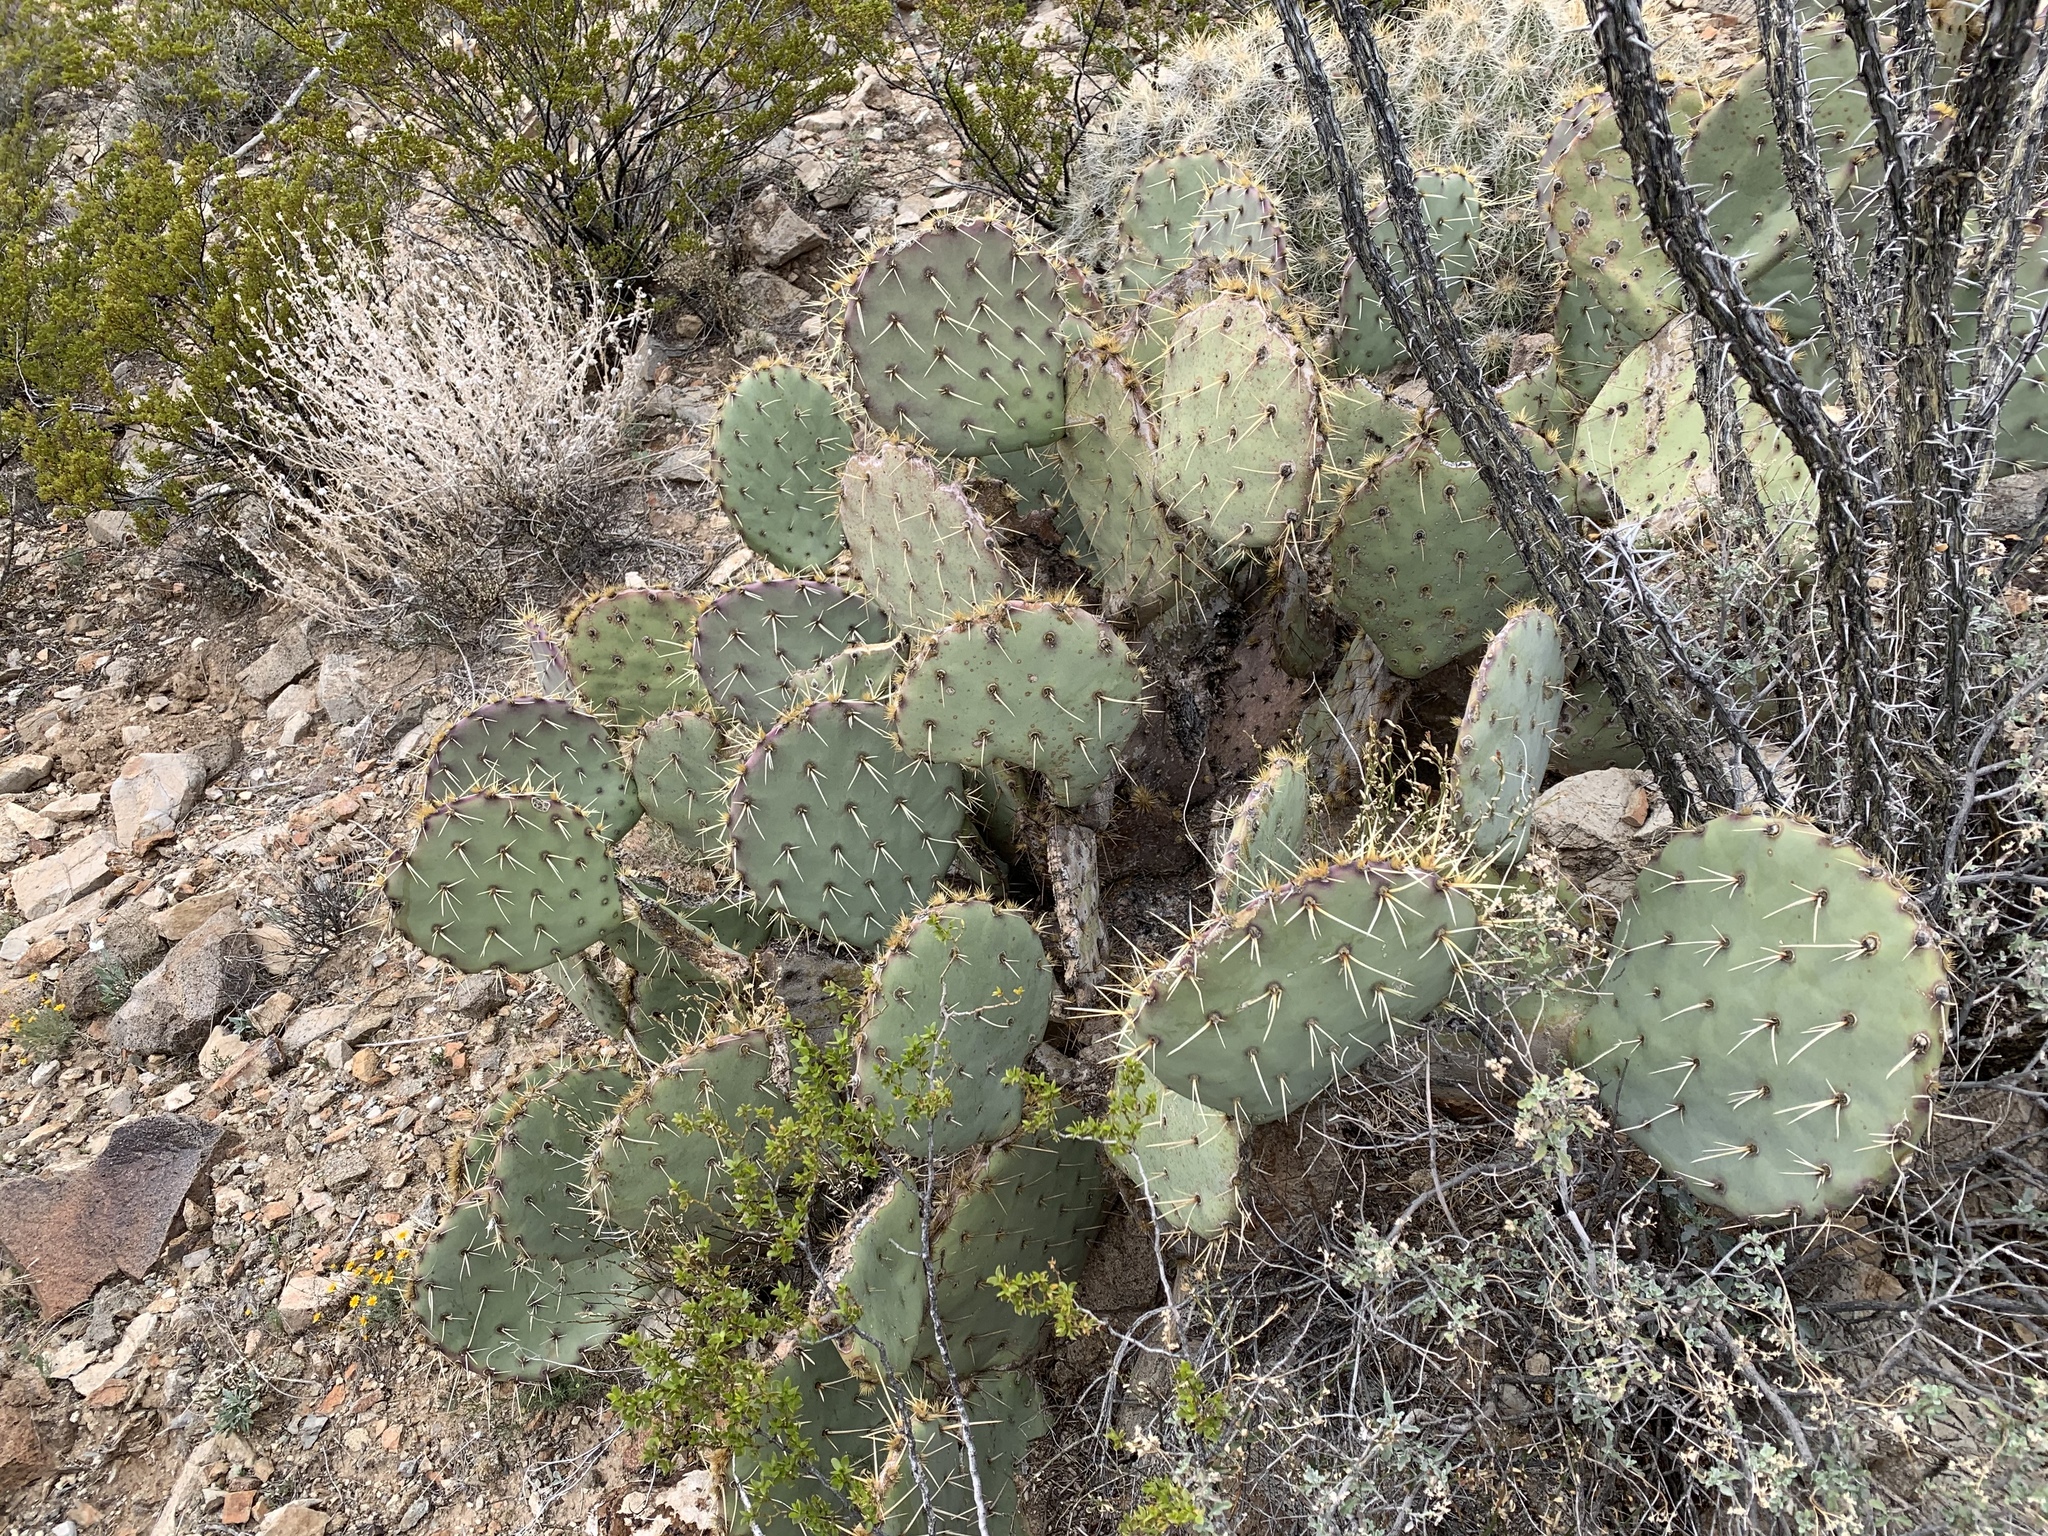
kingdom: Plantae
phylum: Tracheophyta
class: Magnoliopsida
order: Caryophyllales
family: Cactaceae
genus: Opuntia
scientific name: Opuntia engelmannii
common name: Cactus-apple
